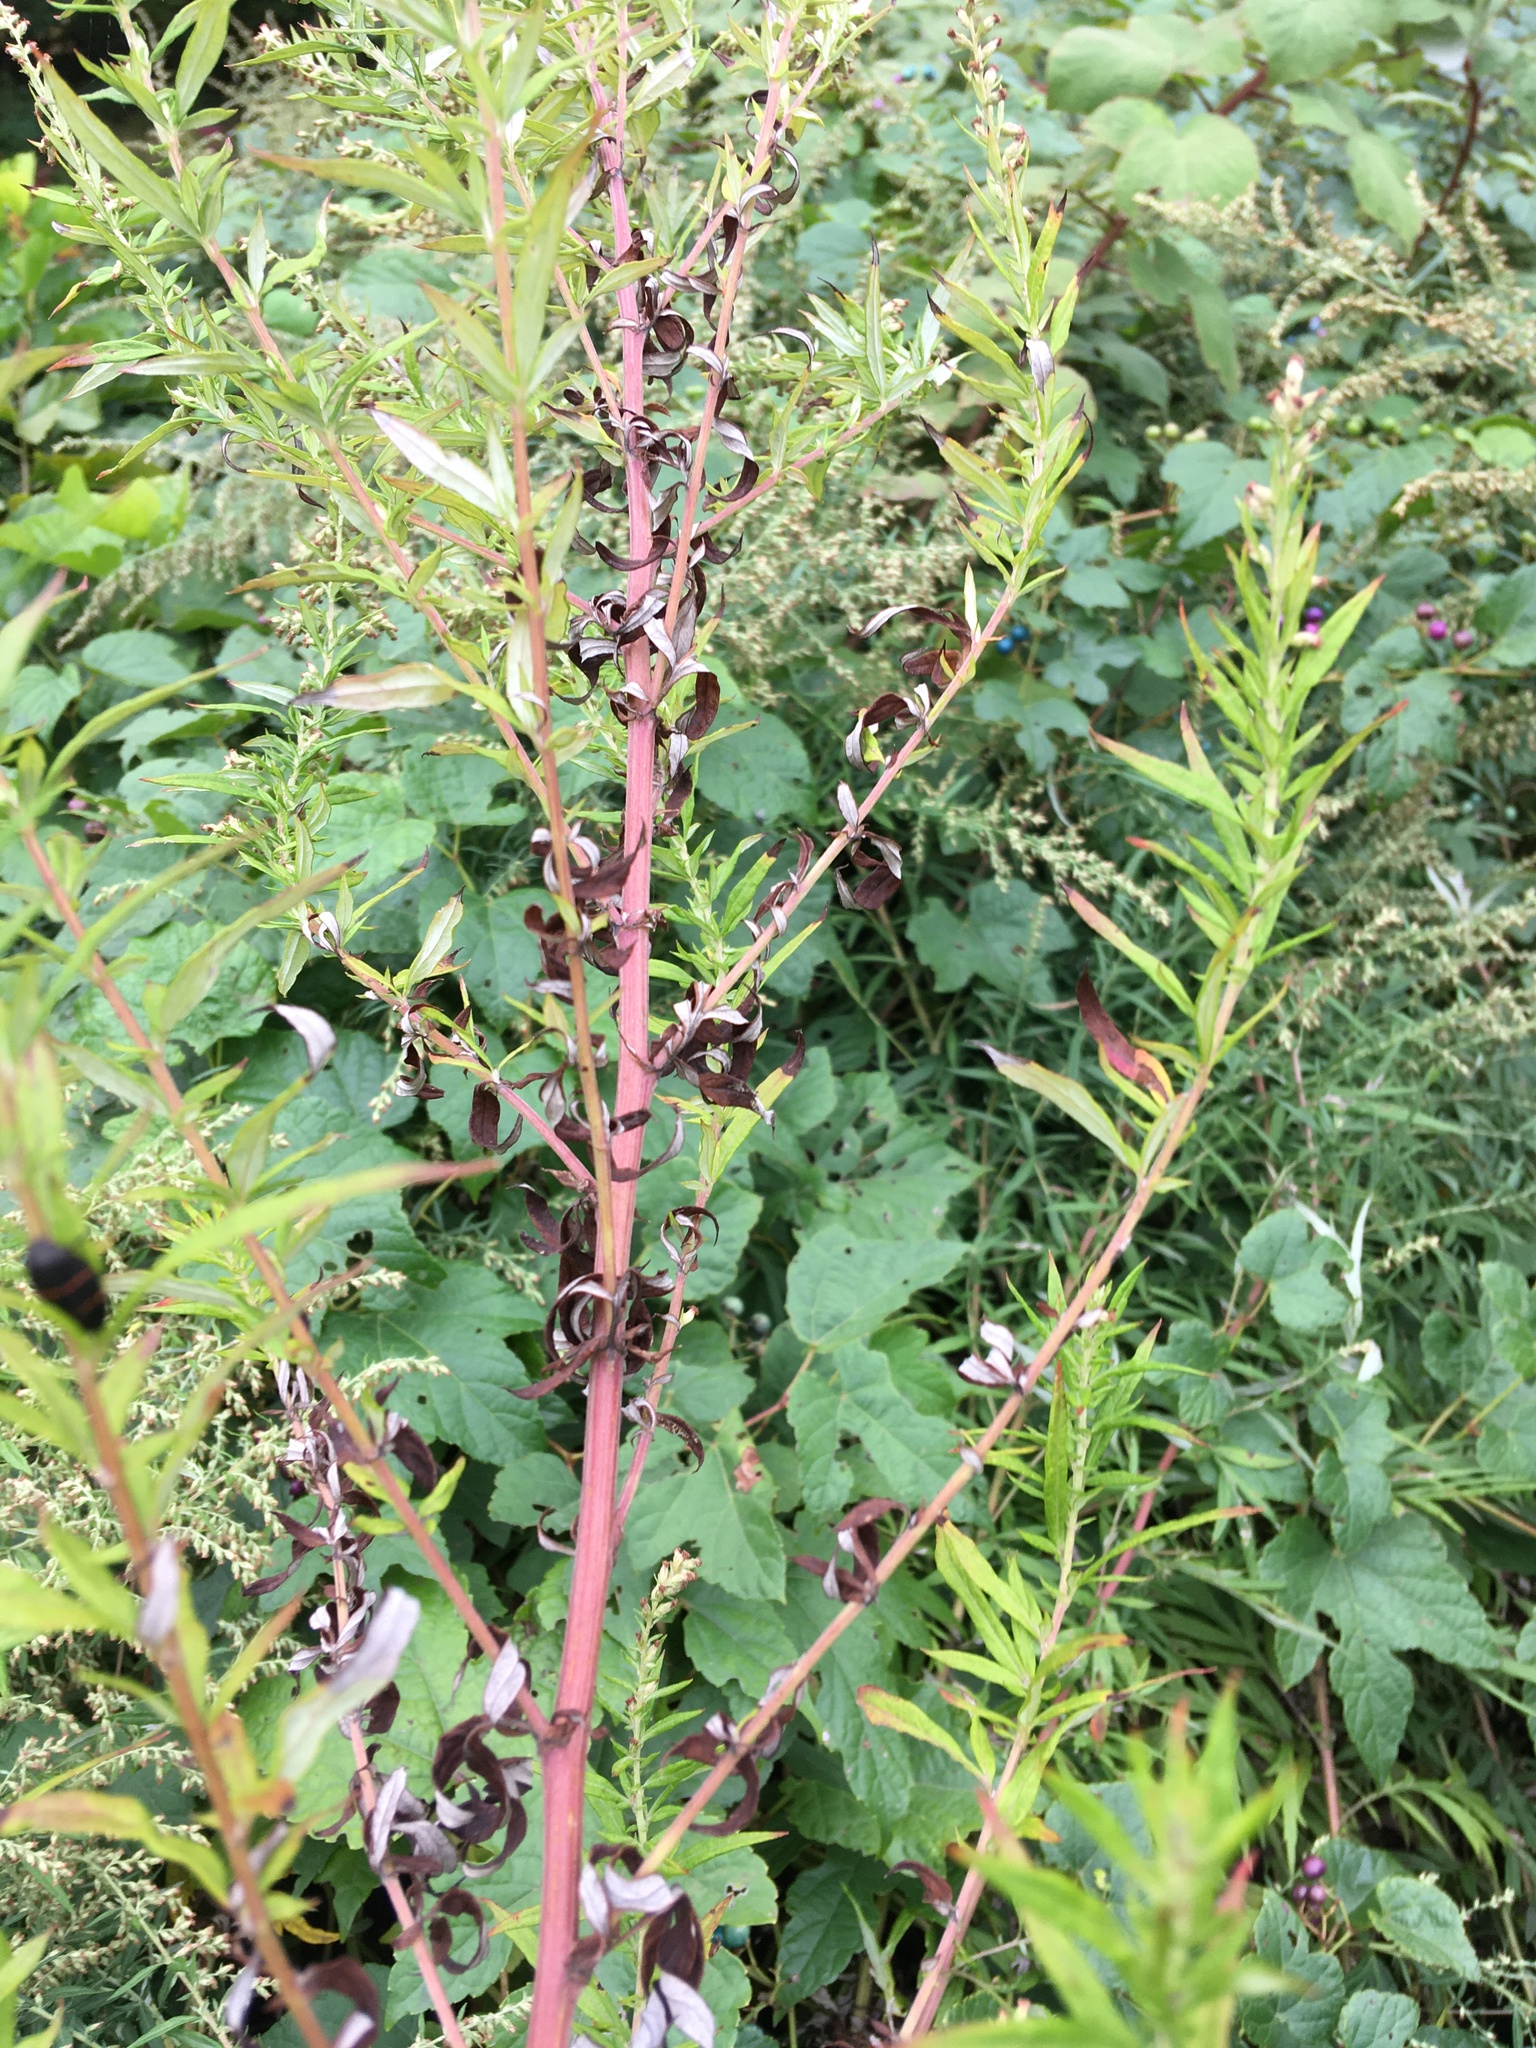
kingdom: Plantae
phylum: Tracheophyta
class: Magnoliopsida
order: Asterales
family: Asteraceae
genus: Artemisia
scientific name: Artemisia vulgaris
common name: Mugwort
